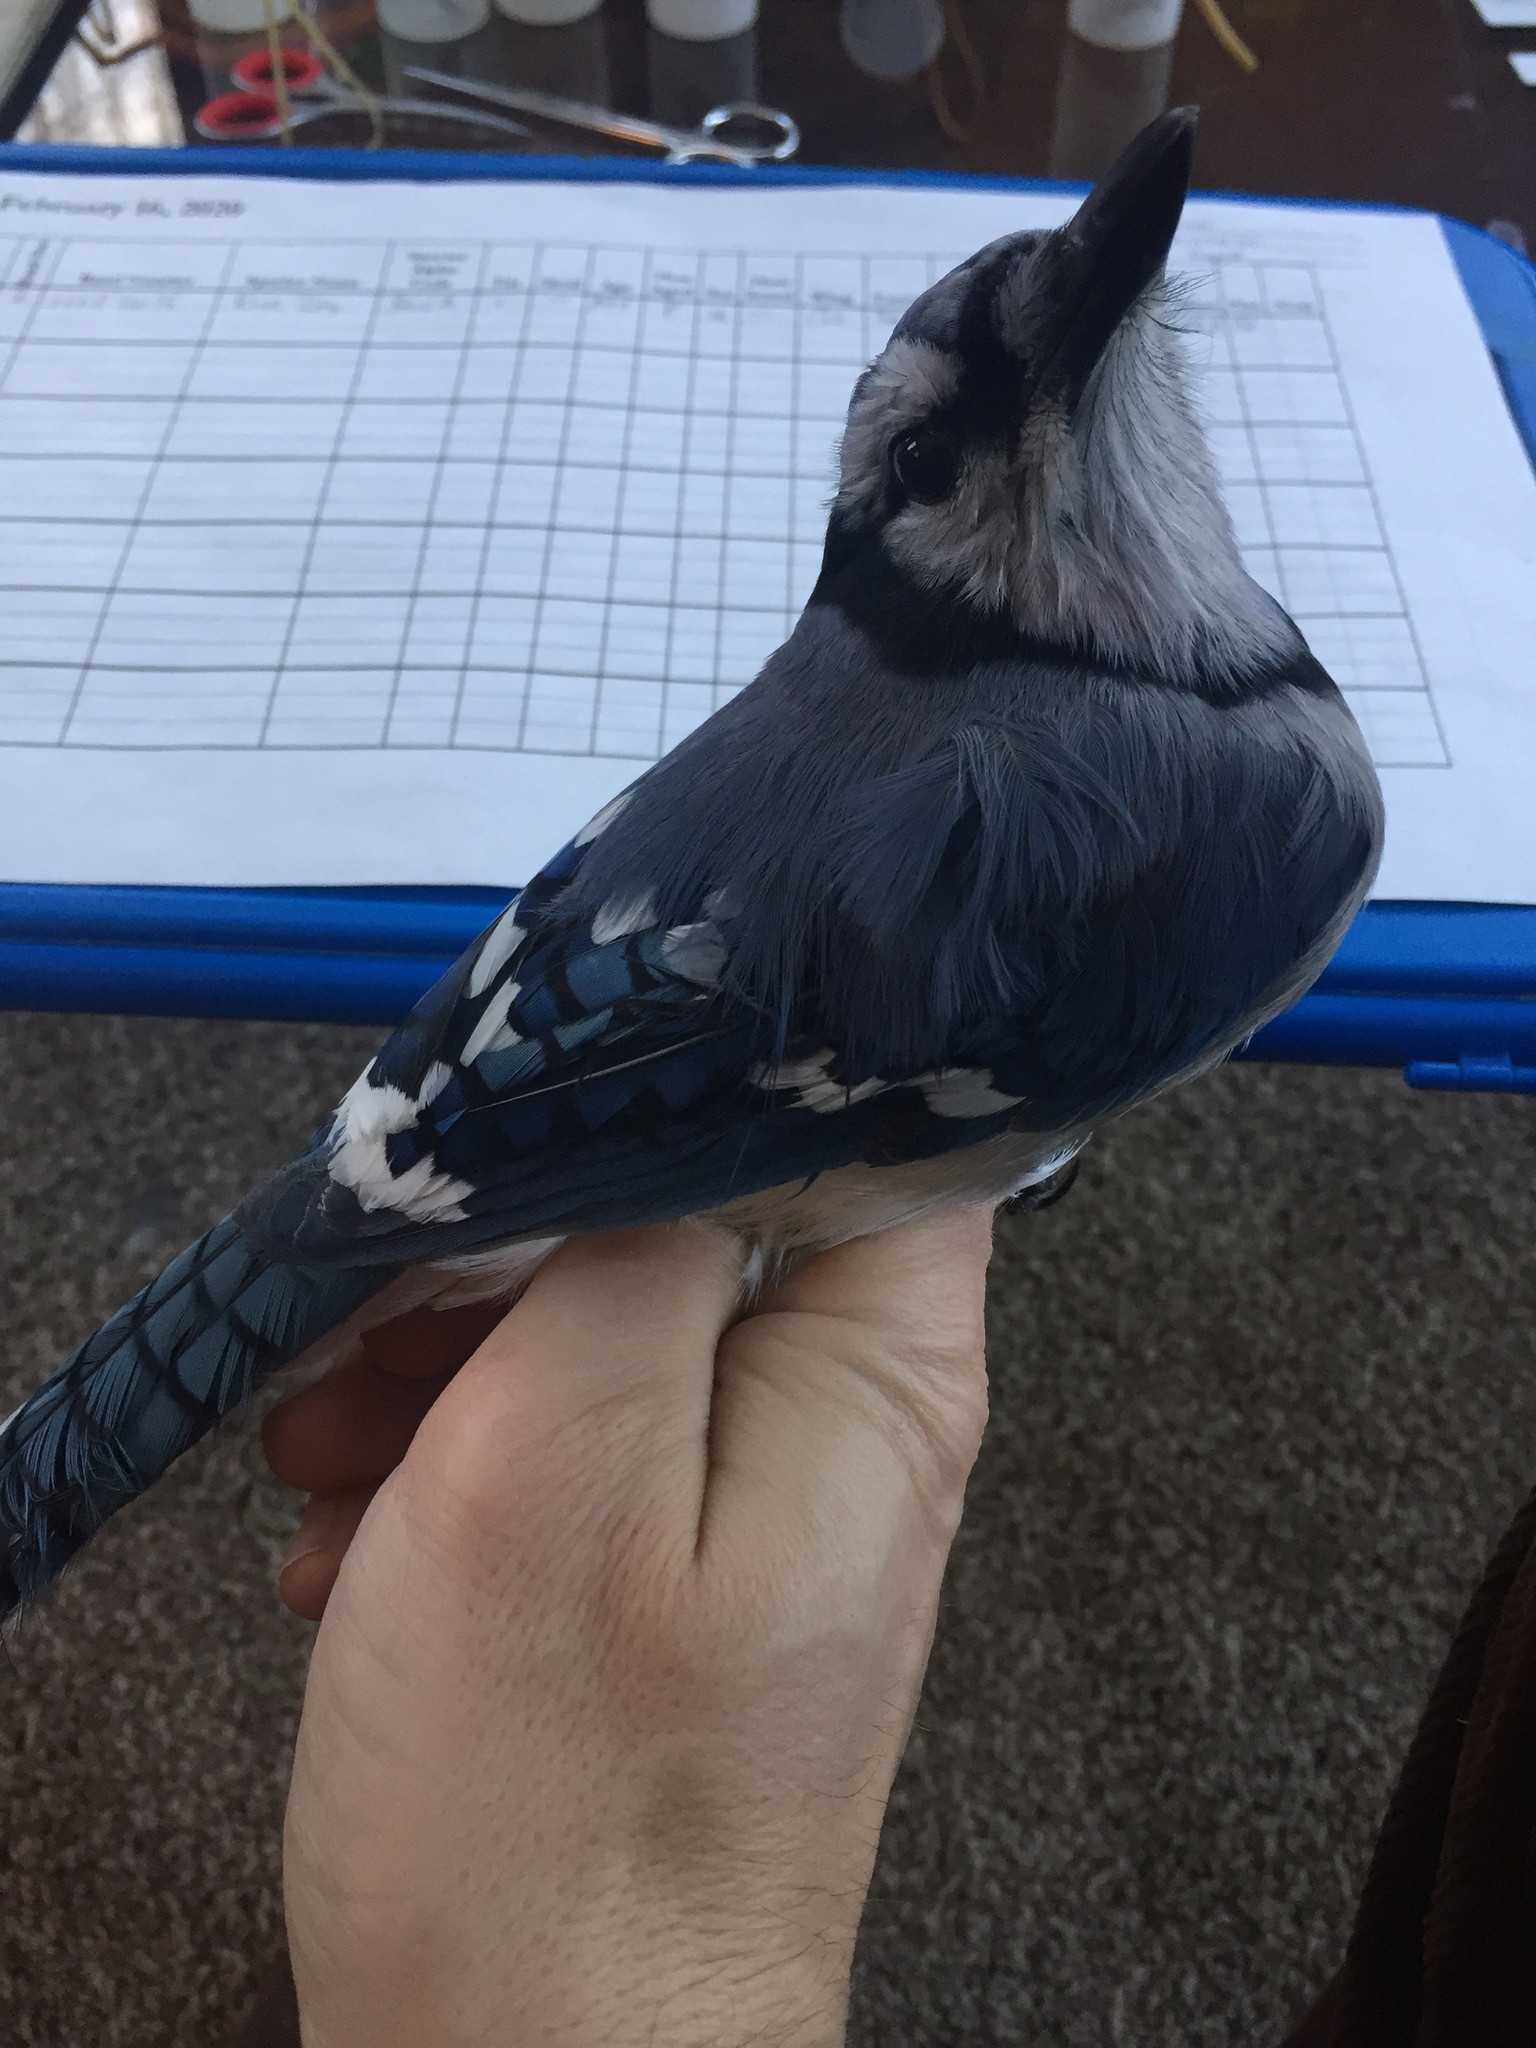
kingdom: Animalia
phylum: Chordata
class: Aves
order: Passeriformes
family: Corvidae
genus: Cyanocitta
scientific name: Cyanocitta cristata
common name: Blue jay
